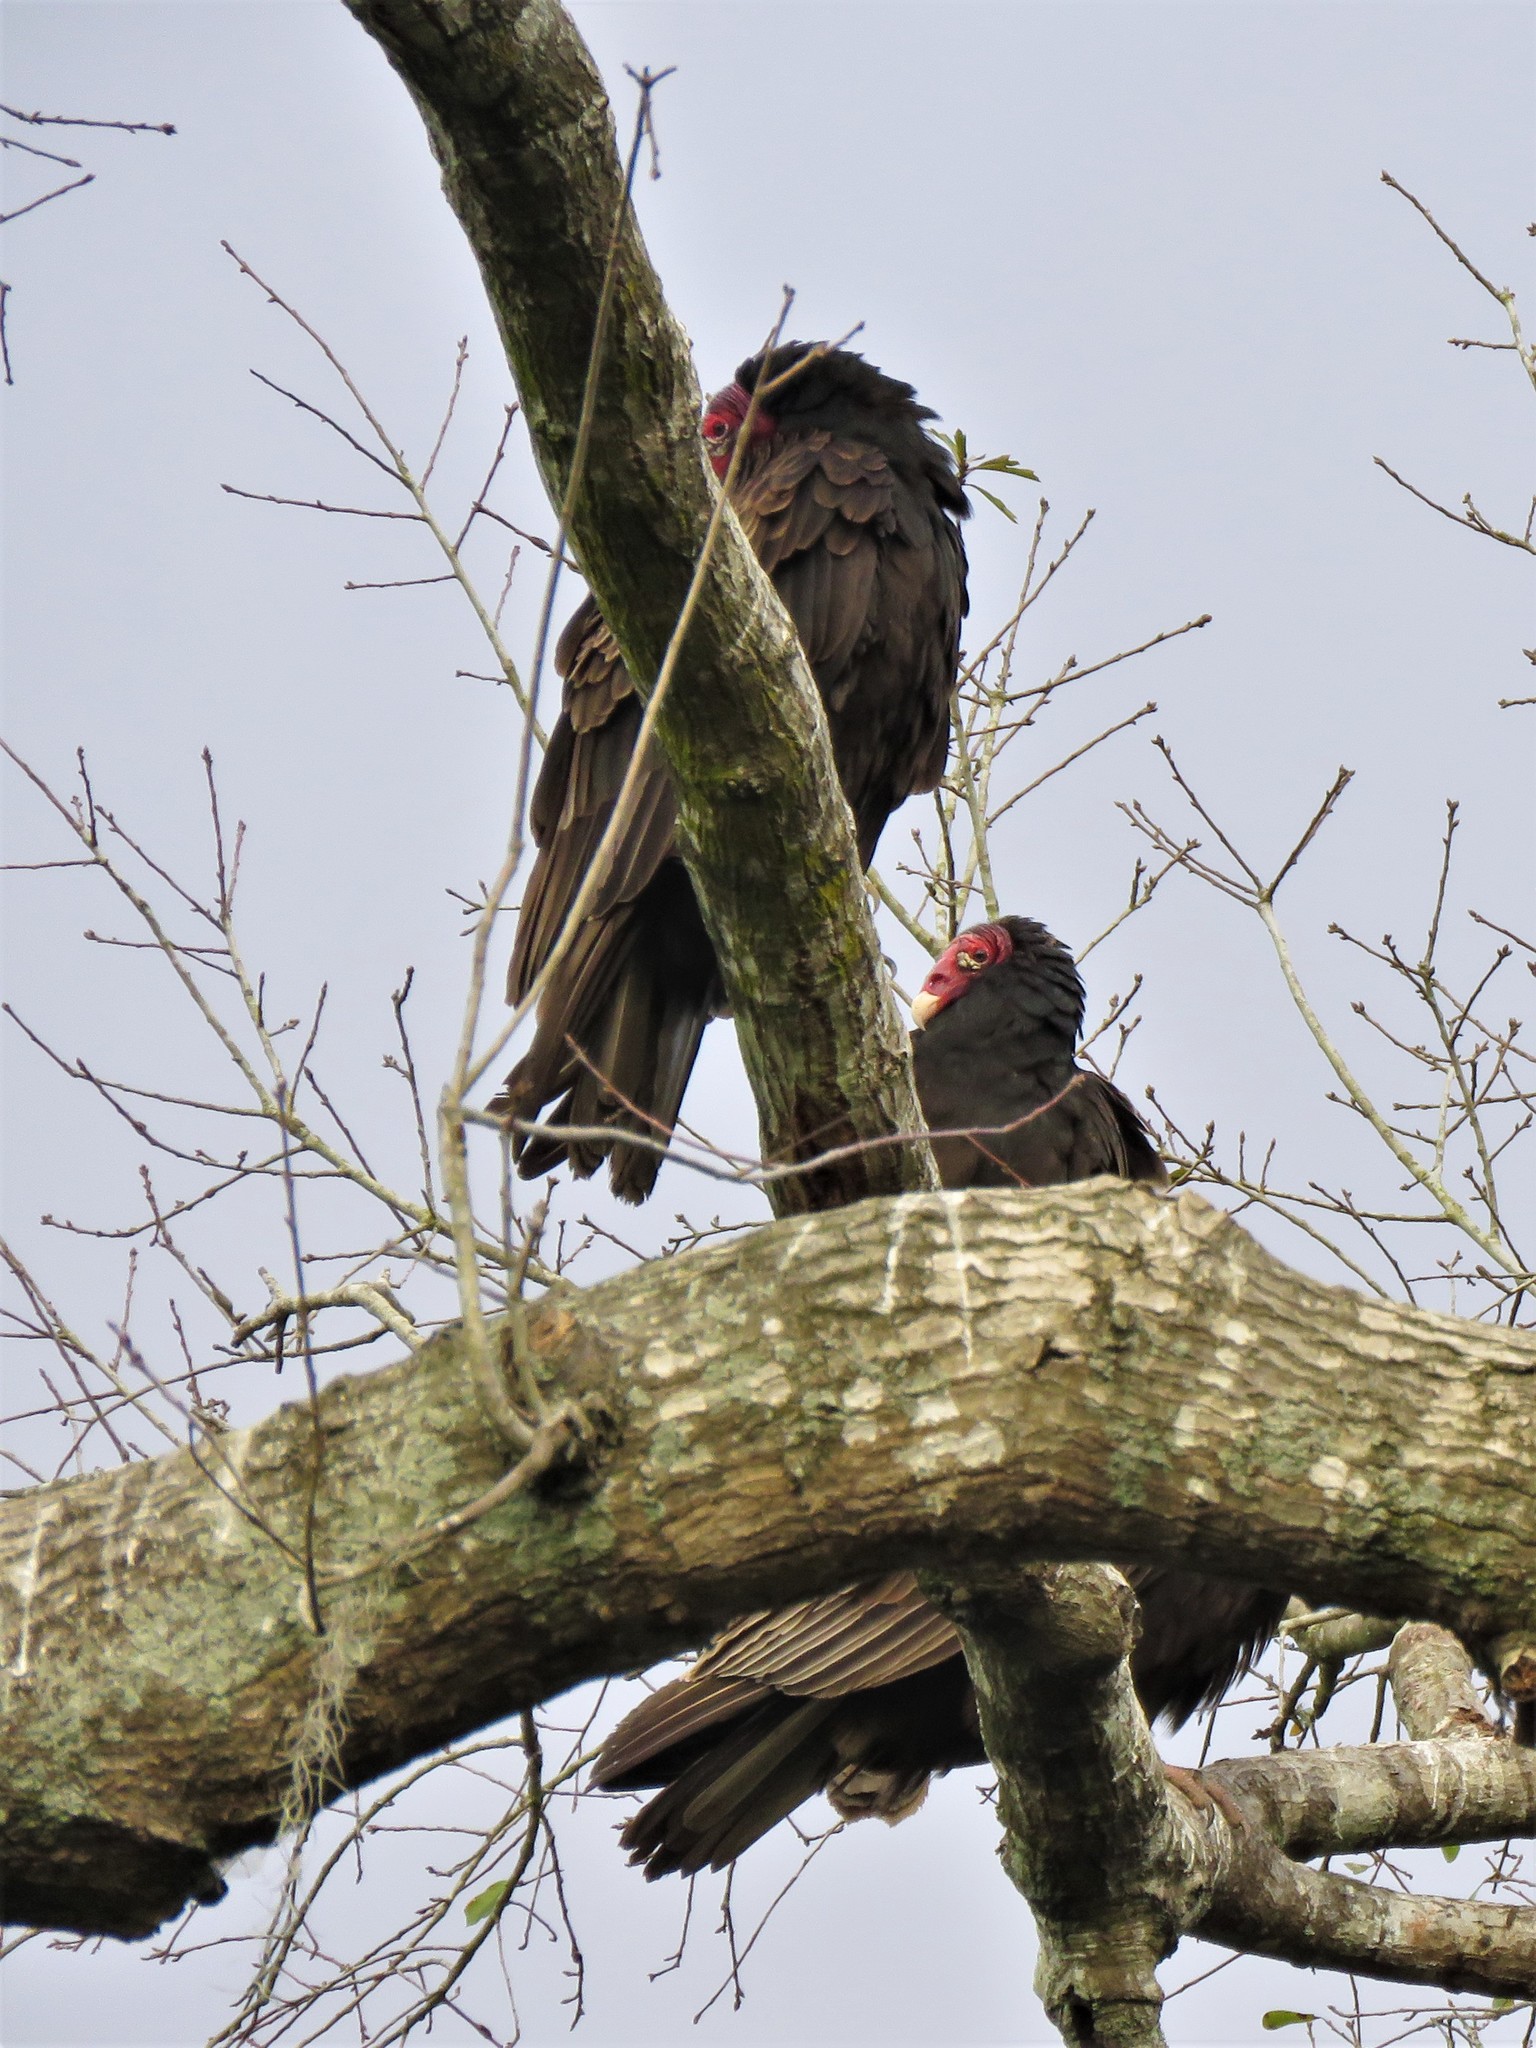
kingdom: Animalia
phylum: Chordata
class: Aves
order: Accipitriformes
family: Cathartidae
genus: Cathartes
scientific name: Cathartes aura
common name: Turkey vulture
